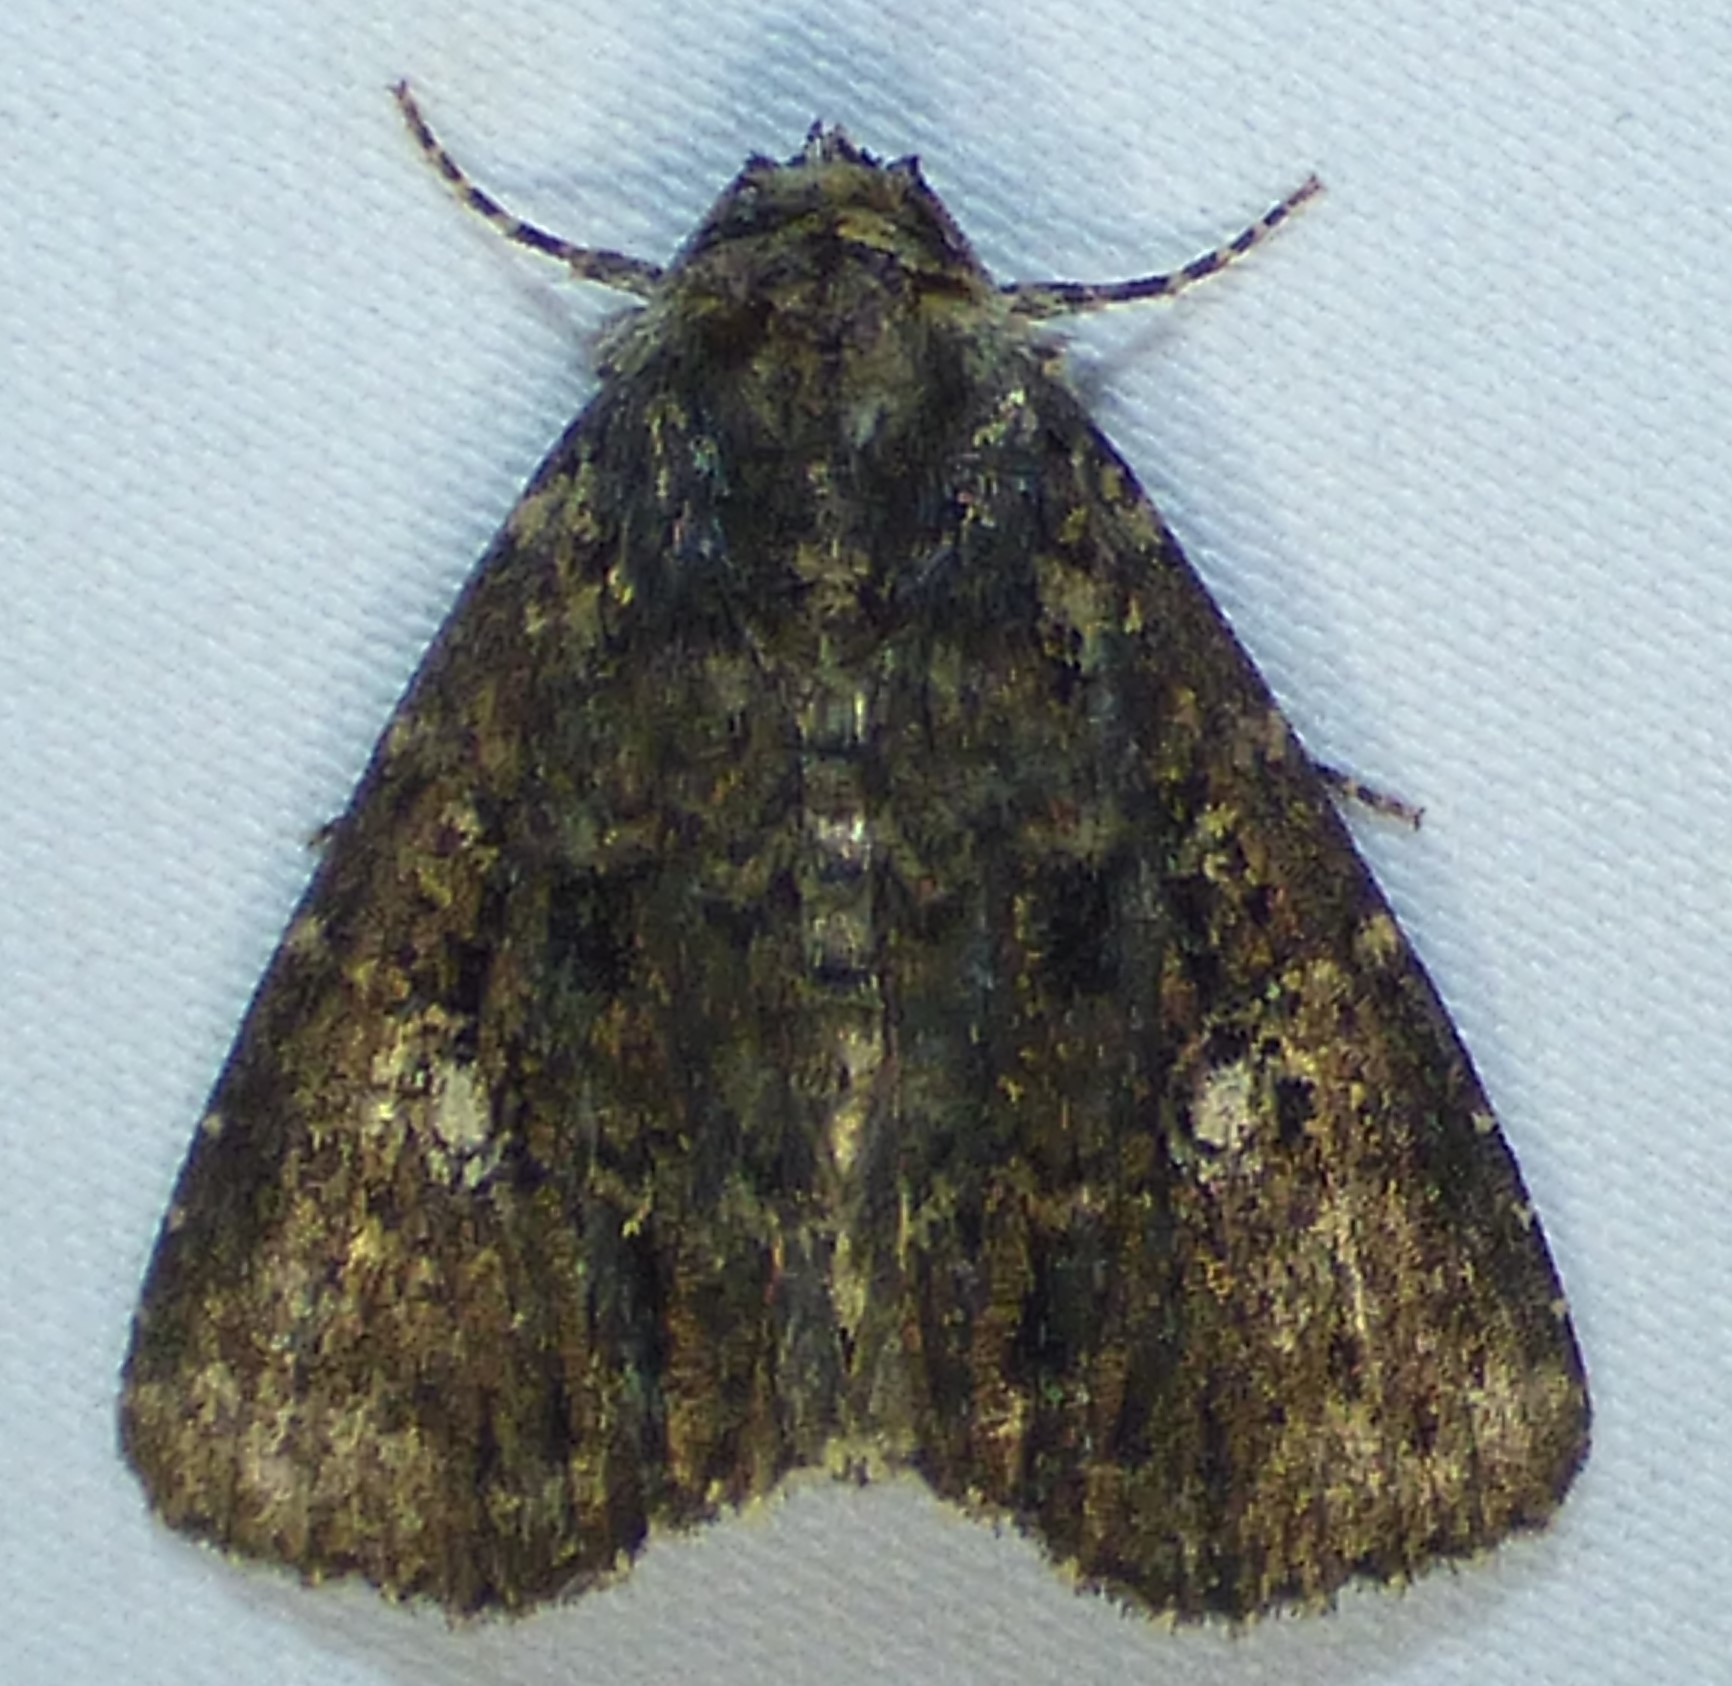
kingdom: Animalia
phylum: Arthropoda
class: Insecta
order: Lepidoptera
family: Noctuidae
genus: Condica
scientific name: Condica vecors
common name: Dusky groundling
